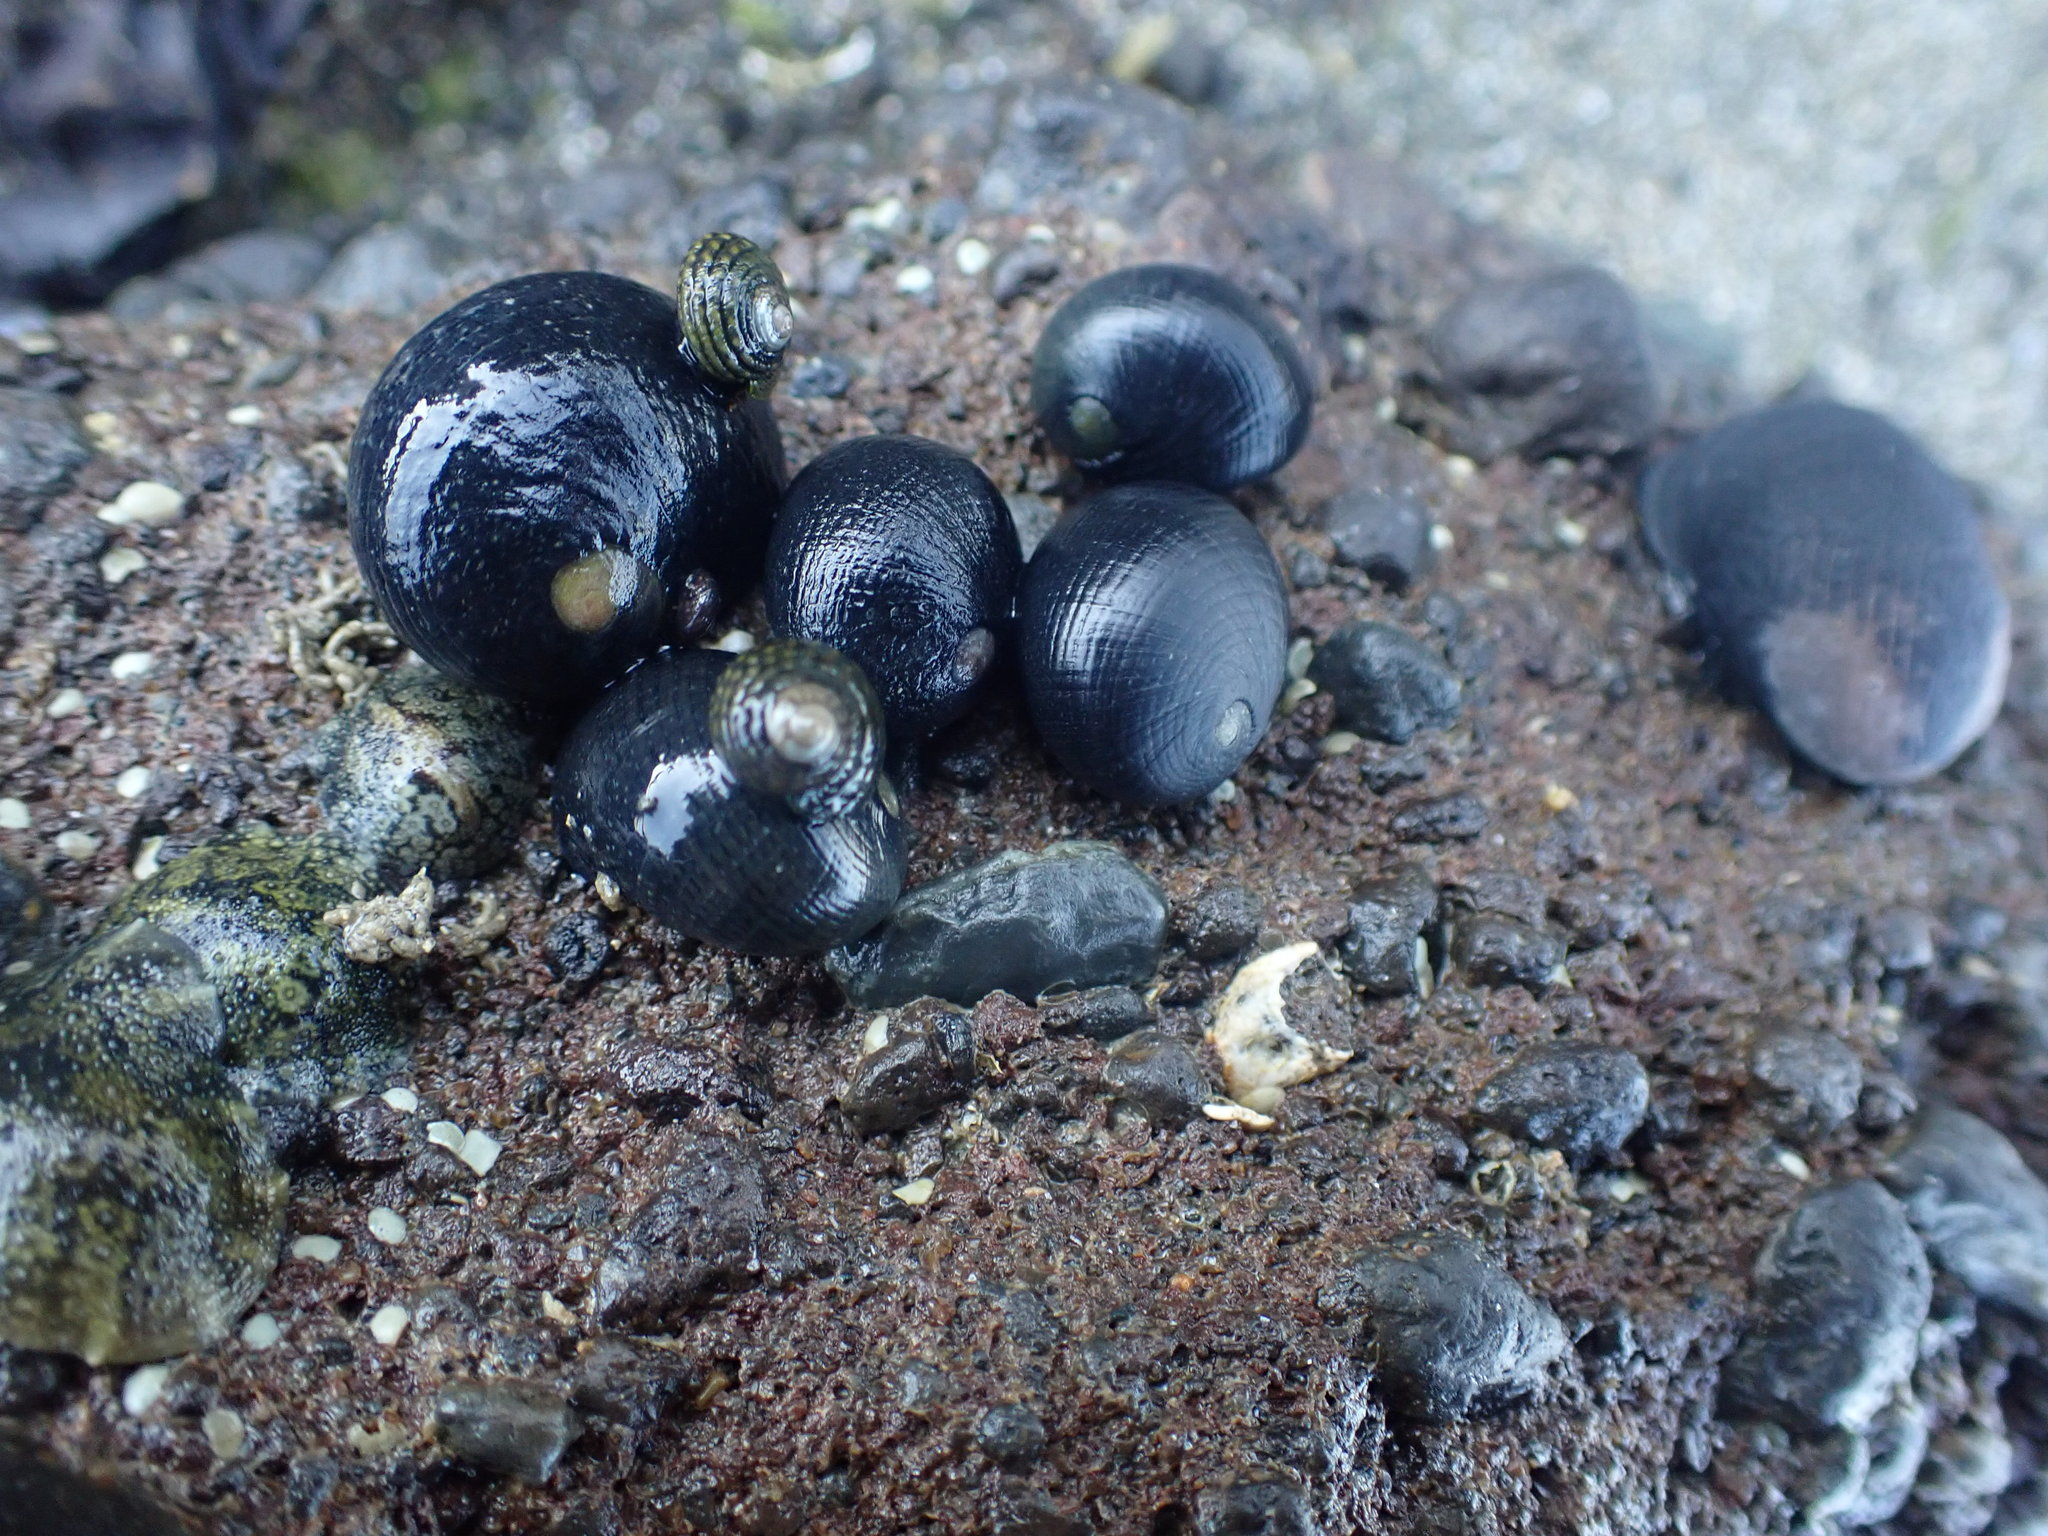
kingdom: Animalia
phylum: Mollusca
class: Gastropoda
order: Cycloneritida
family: Neritidae
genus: Nerita
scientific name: Nerita melanotragus
